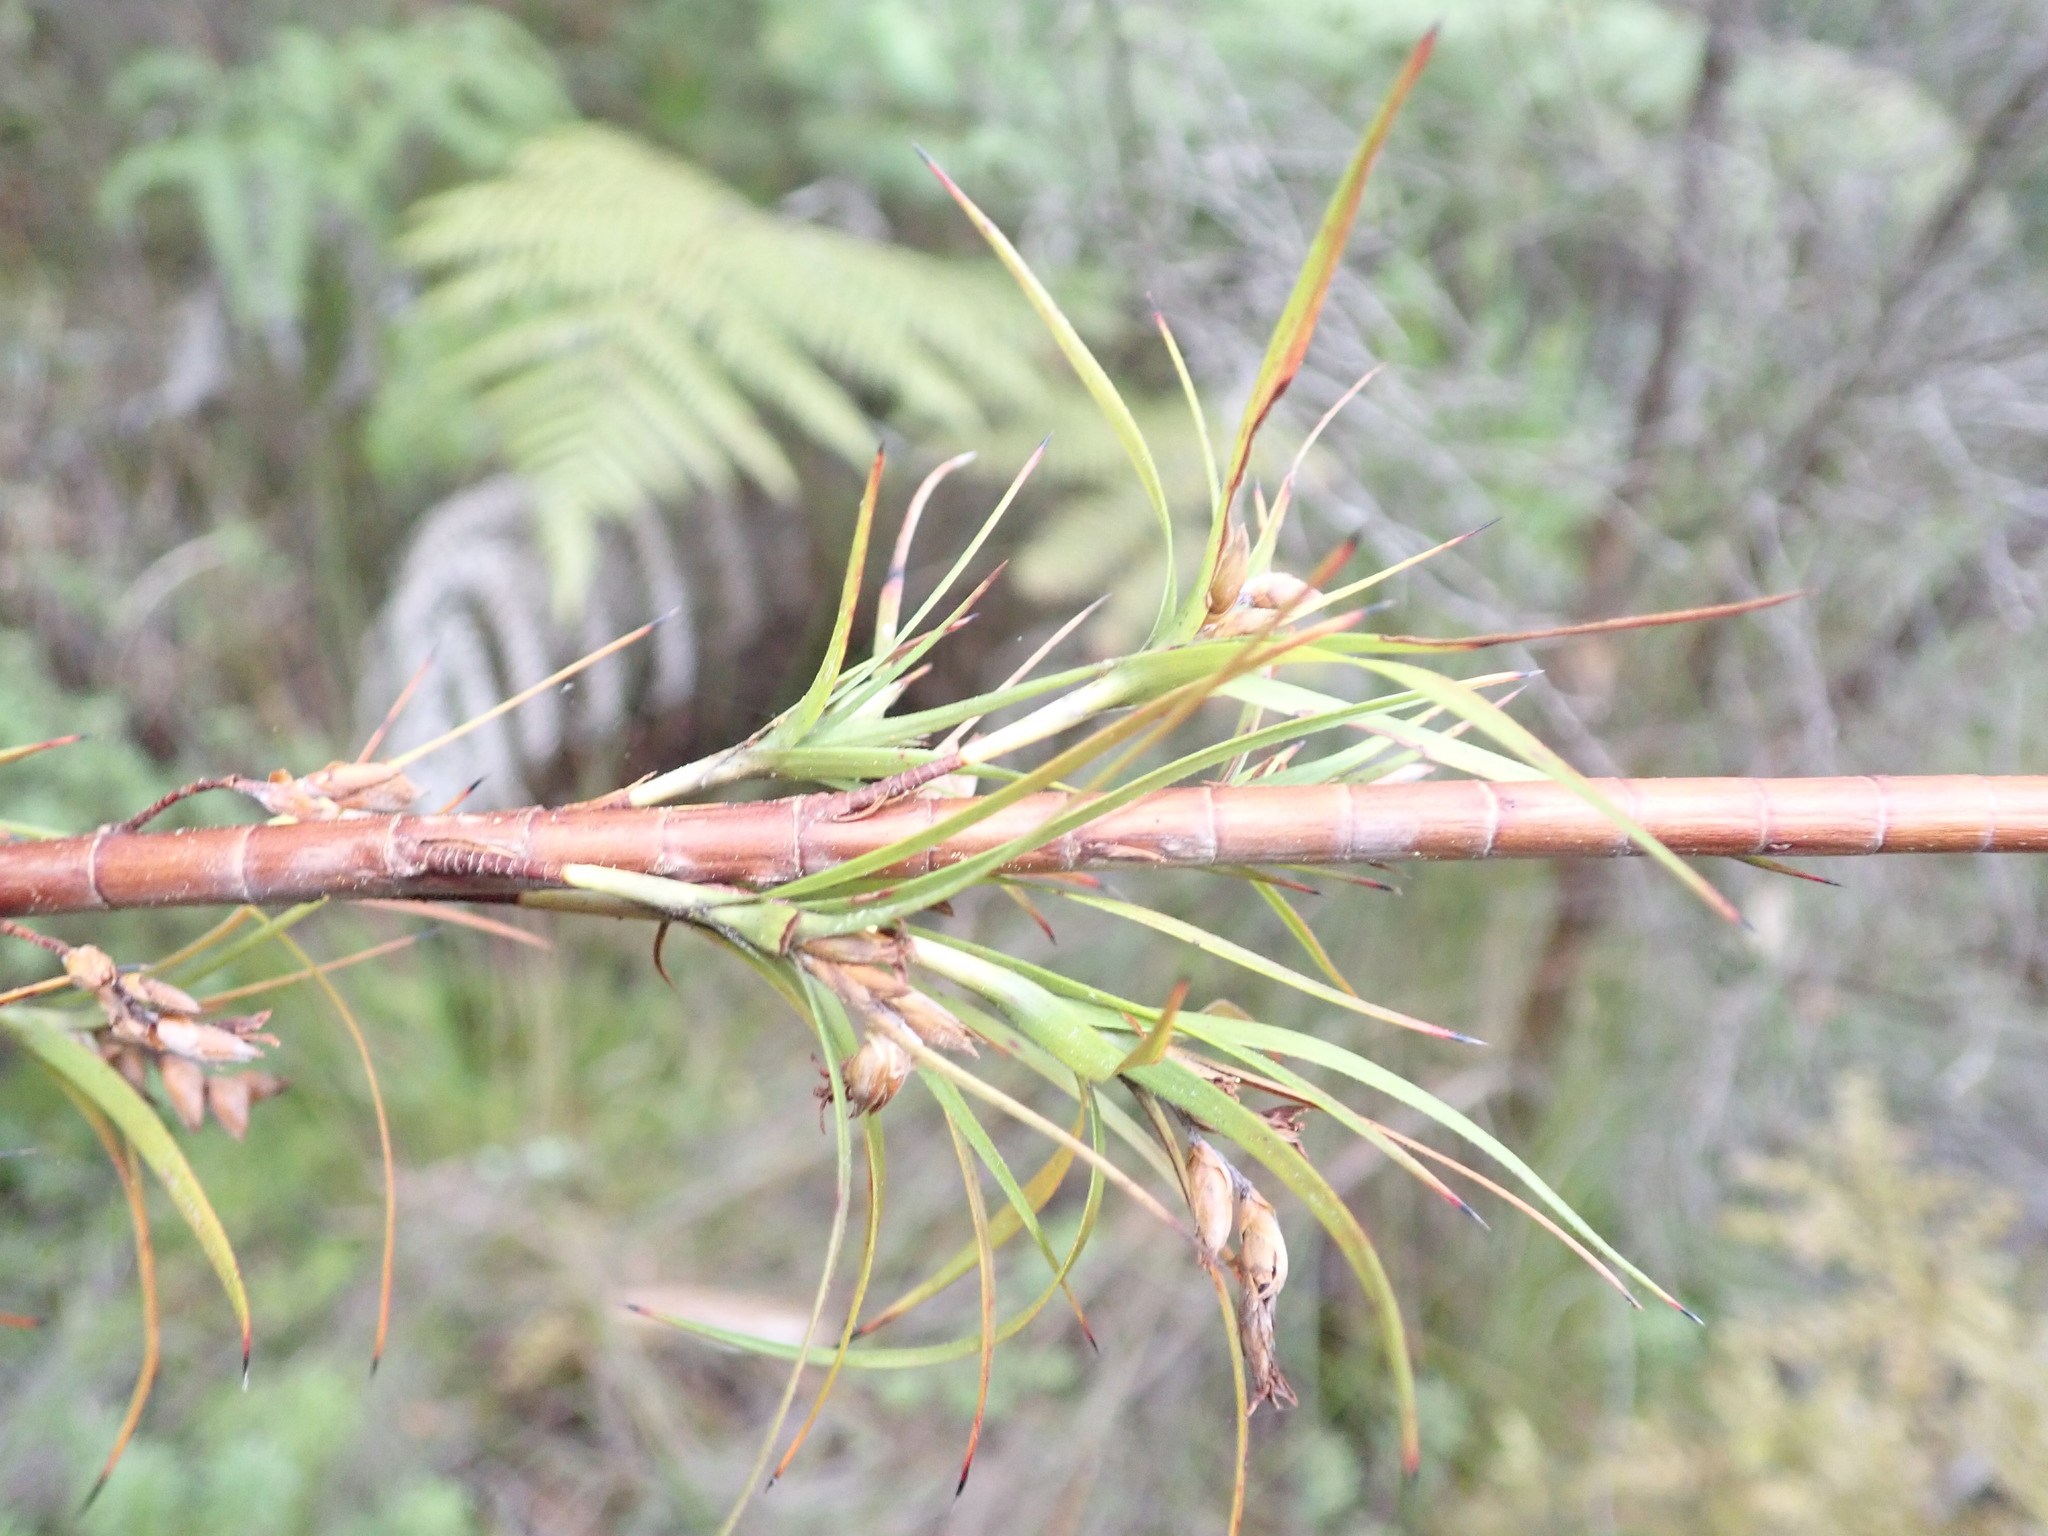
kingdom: Plantae
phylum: Tracheophyta
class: Magnoliopsida
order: Ericales
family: Ericaceae
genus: Dracophyllum
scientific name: Dracophyllum sinclairii
